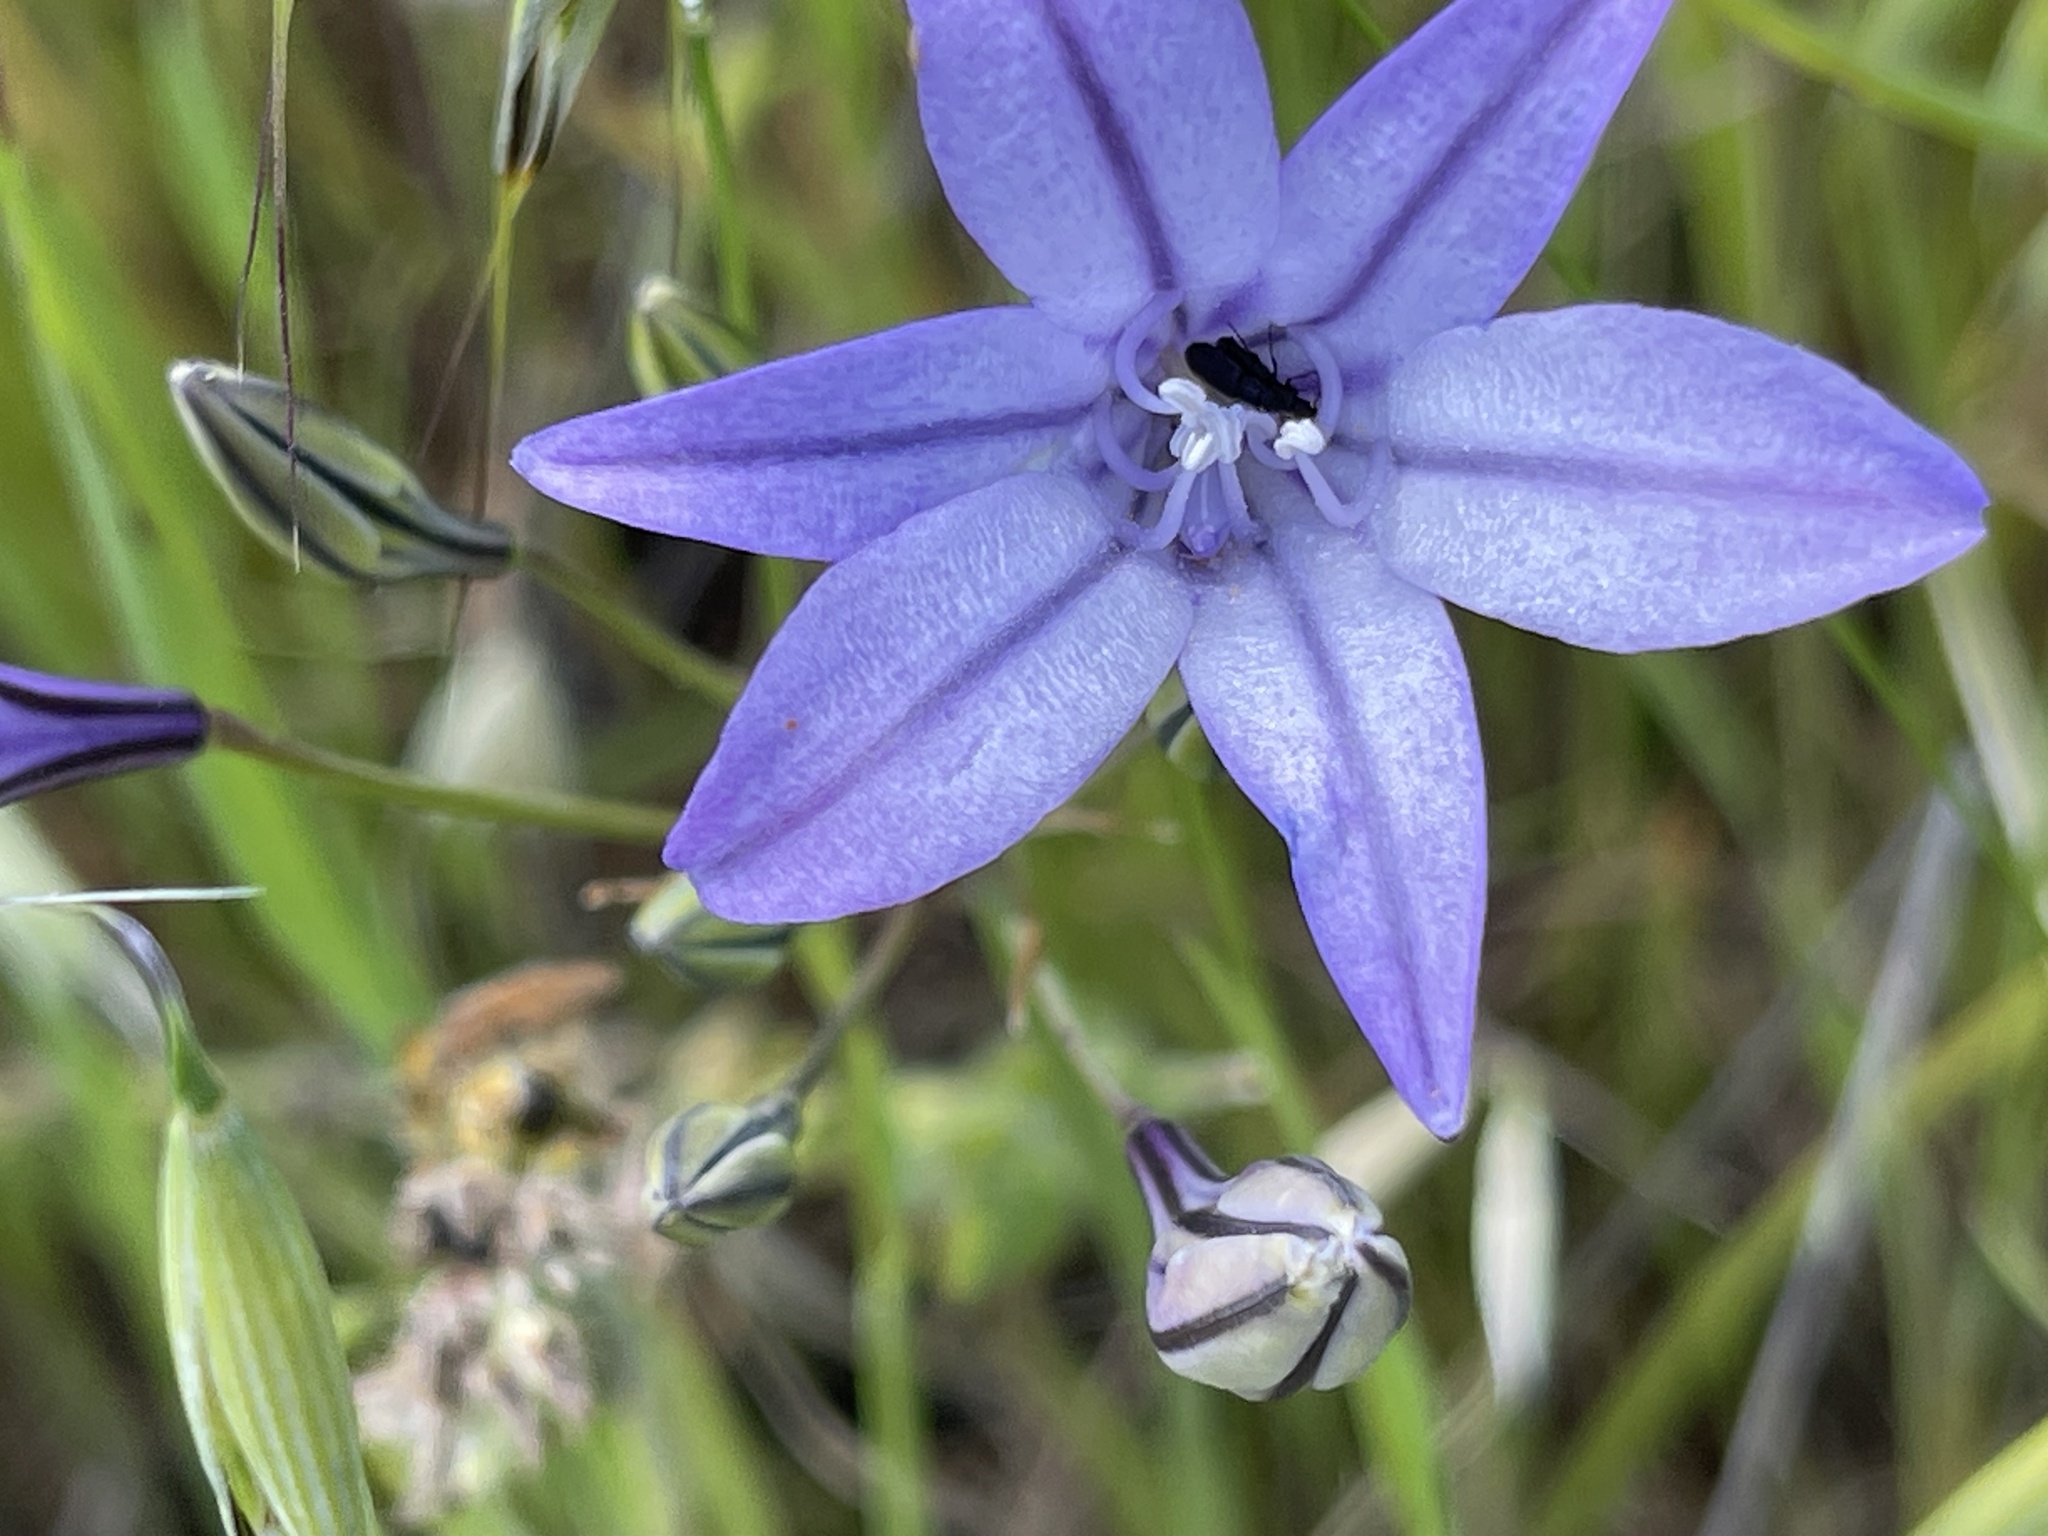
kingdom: Plantae
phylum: Tracheophyta
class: Liliopsida
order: Asparagales
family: Asparagaceae
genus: Triteleia
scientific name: Triteleia laxa
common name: Triplet-lily
